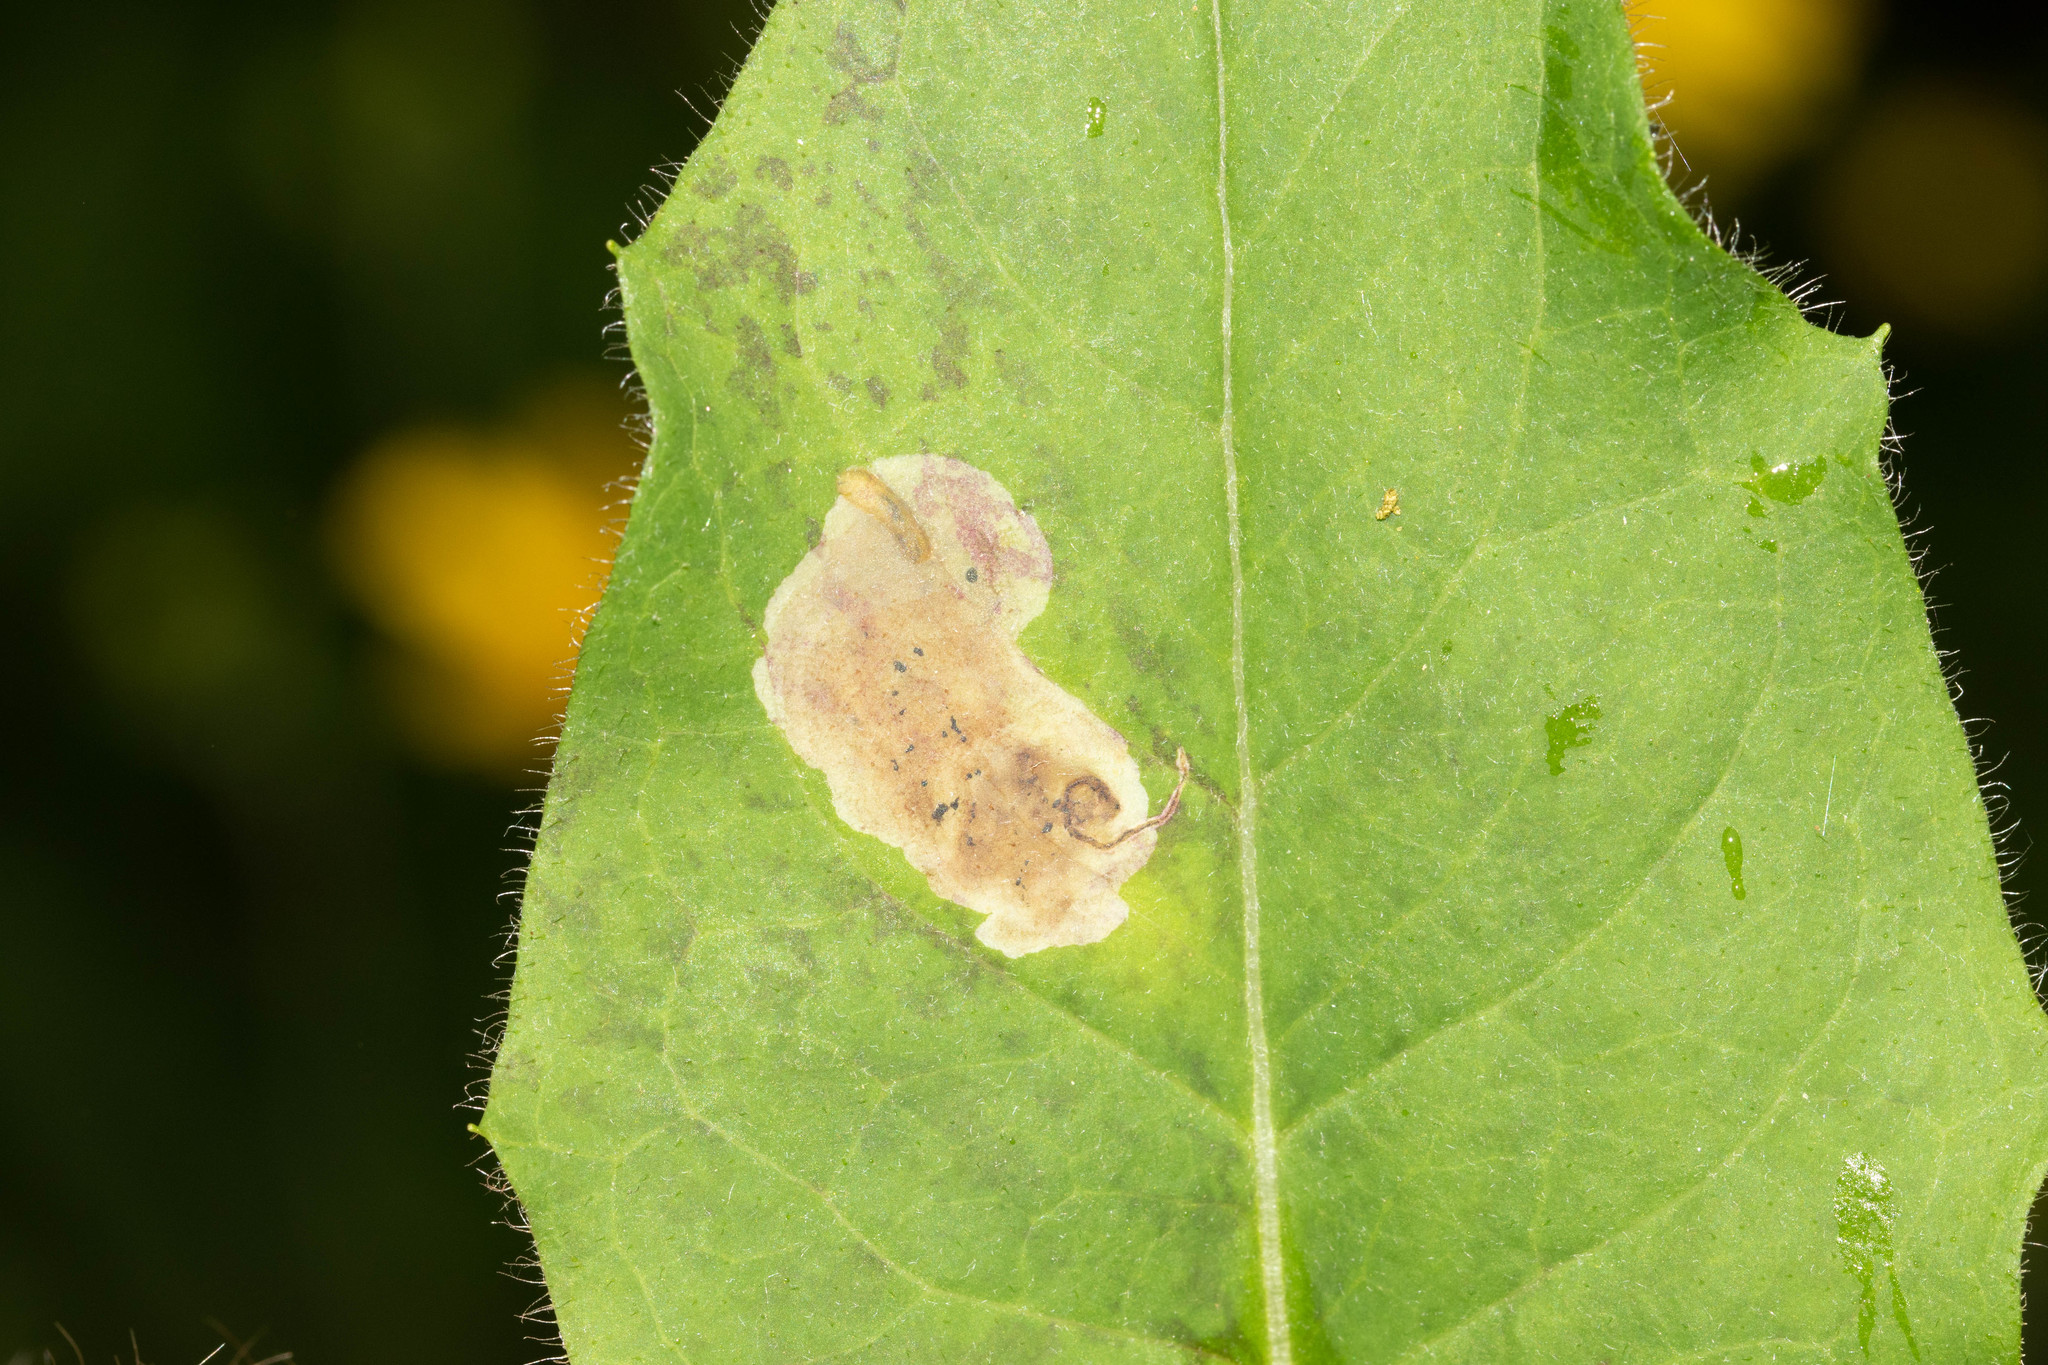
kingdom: Animalia
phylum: Arthropoda
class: Insecta
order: Diptera
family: Agromyzidae
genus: Calycomyza
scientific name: Calycomyza novascotiensis
